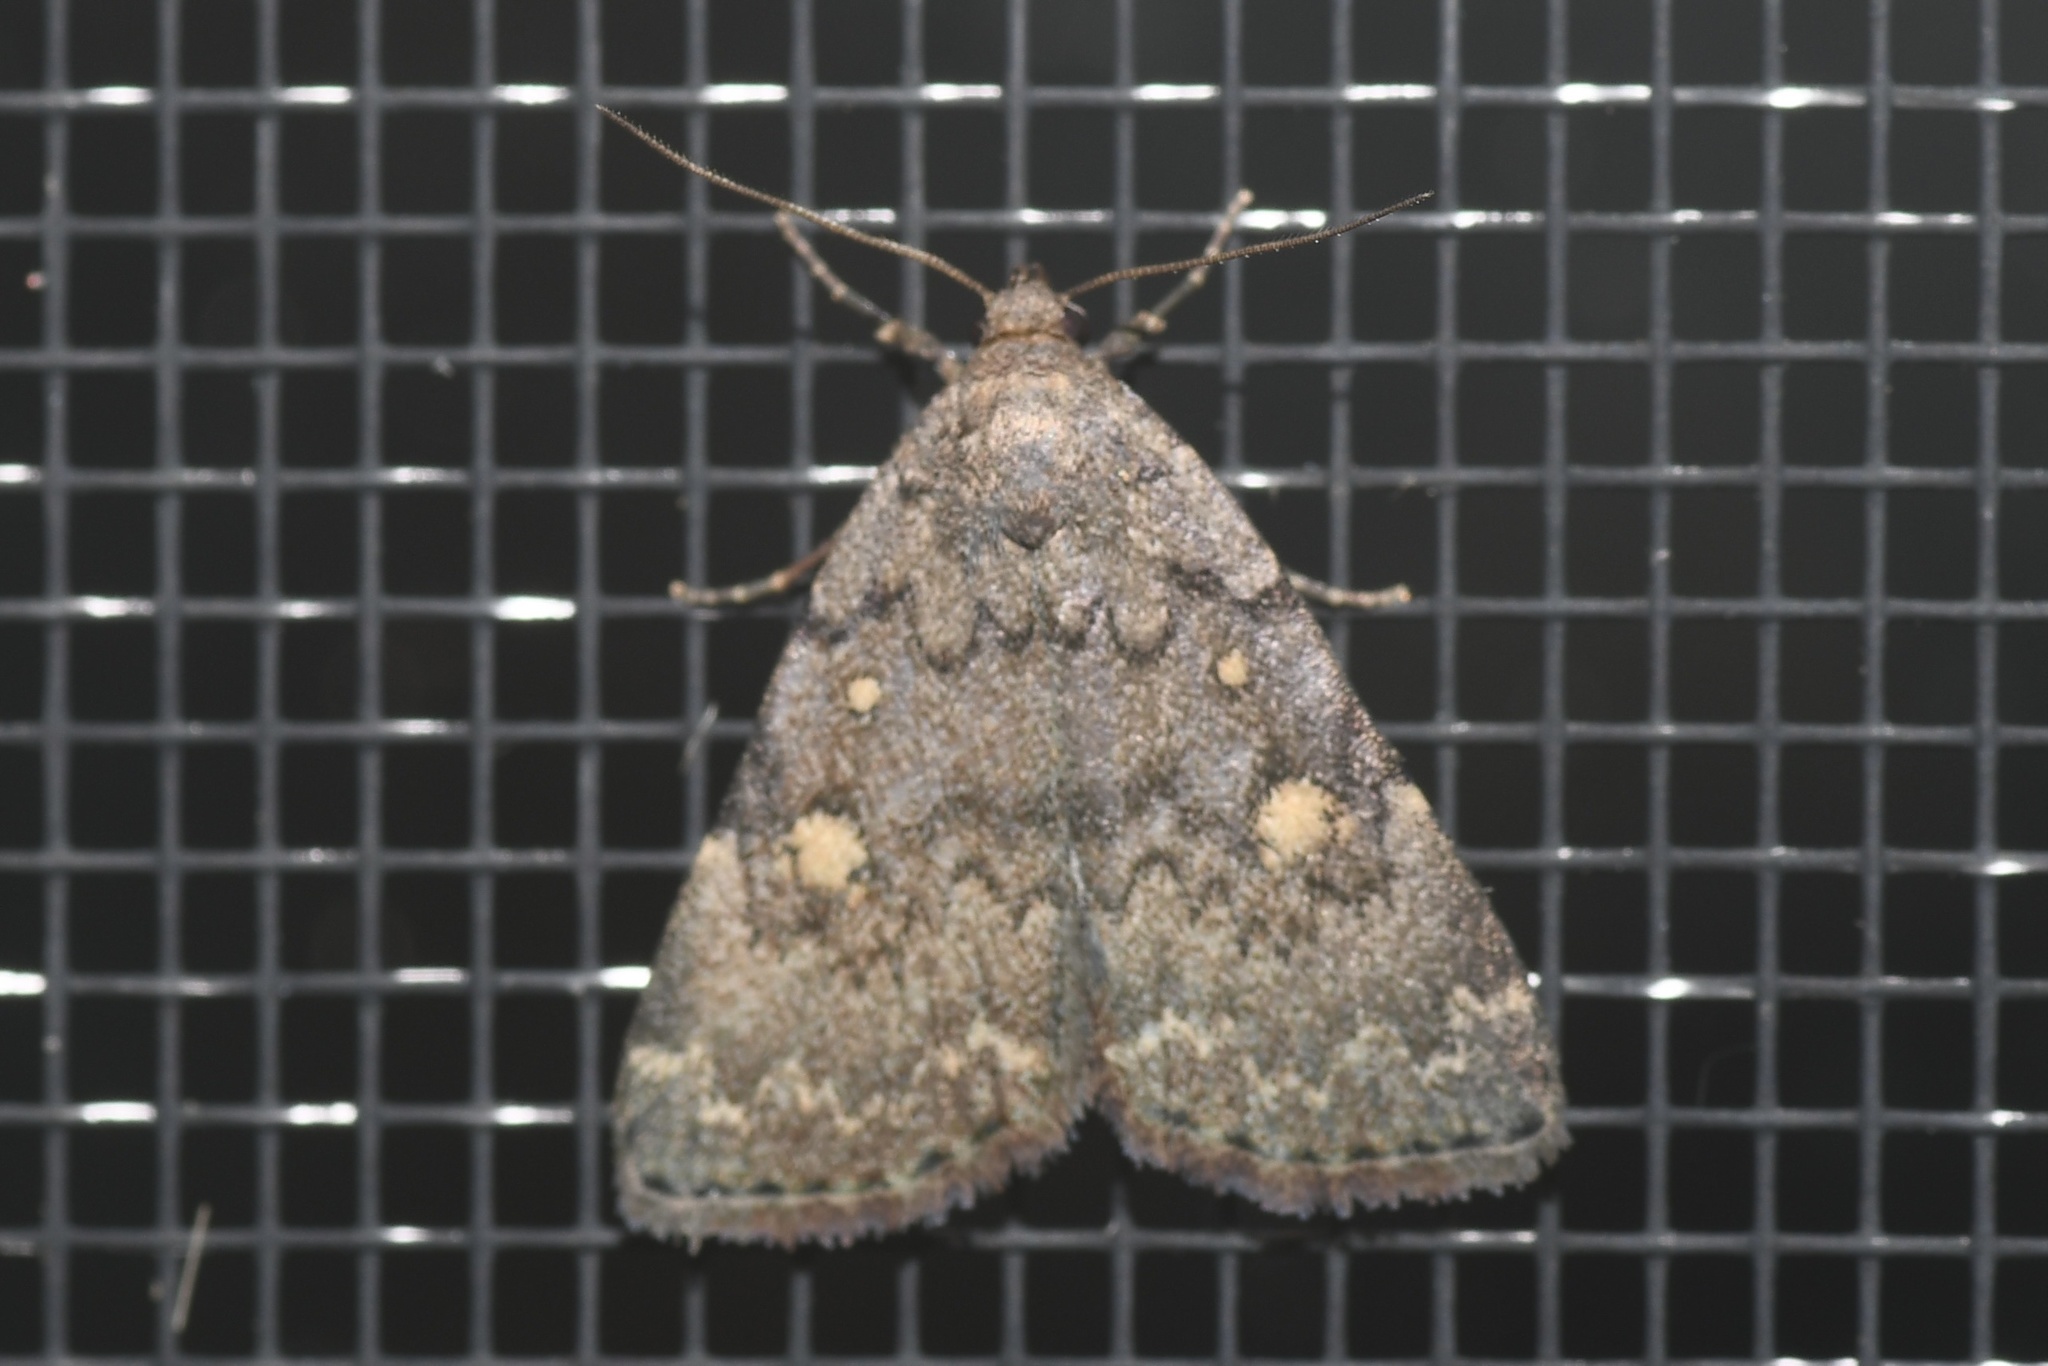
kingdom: Animalia
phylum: Arthropoda
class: Insecta
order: Lepidoptera
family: Erebidae
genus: Idia
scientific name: Idia aemula
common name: Common idia moth
